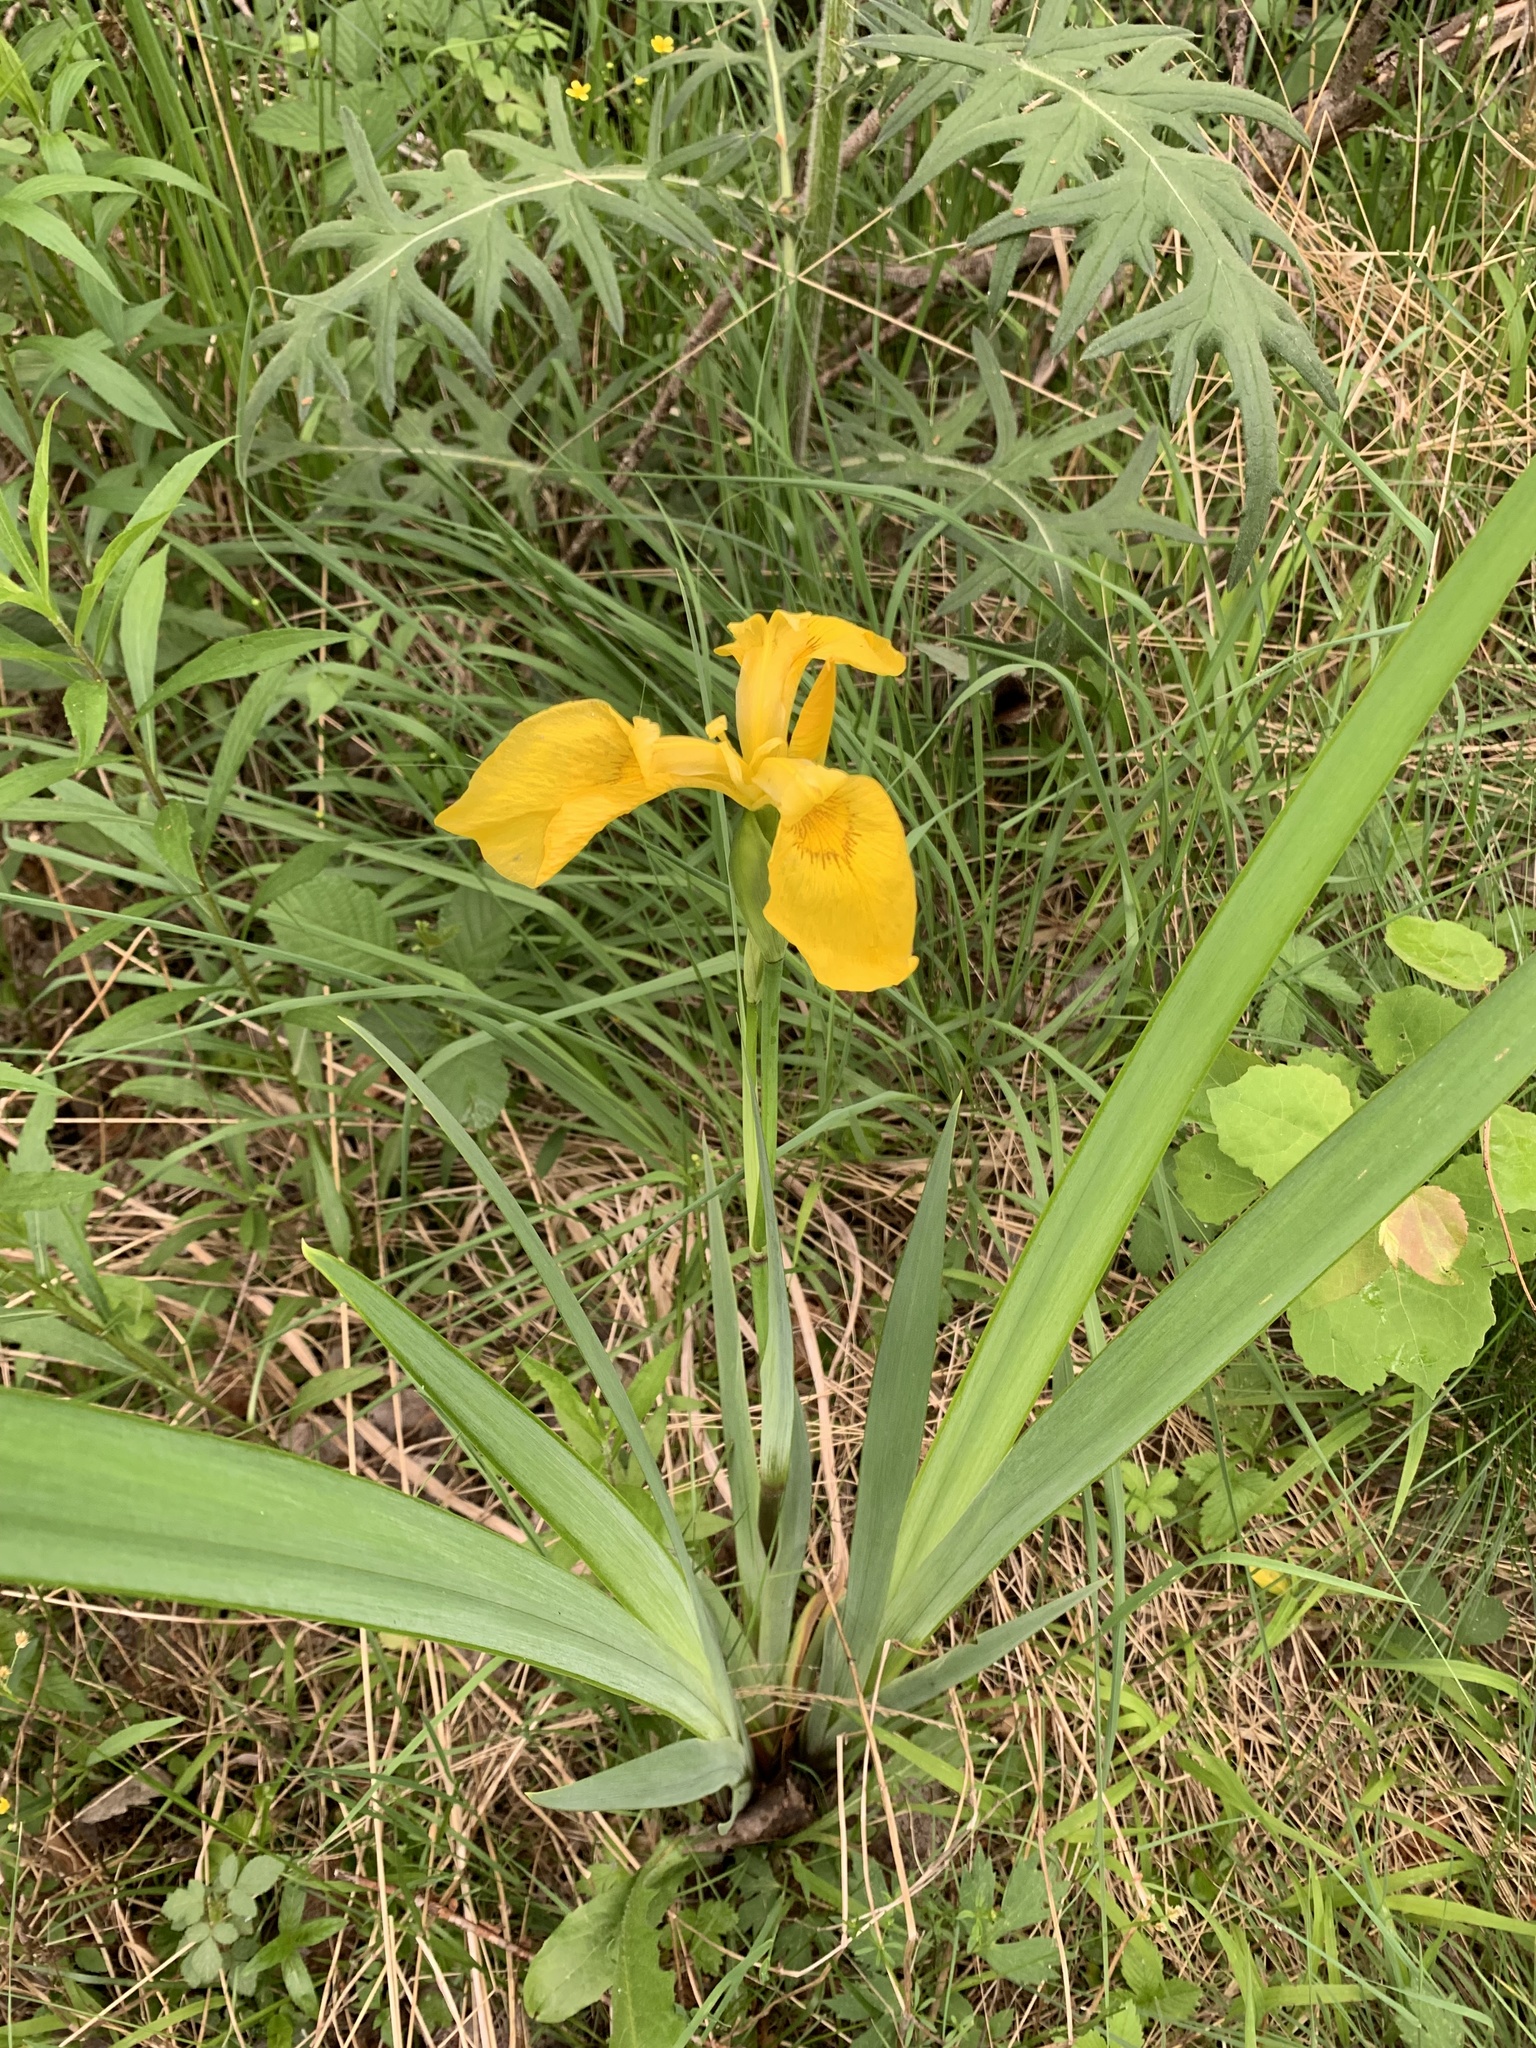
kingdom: Plantae
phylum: Tracheophyta
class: Liliopsida
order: Asparagales
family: Iridaceae
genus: Iris
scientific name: Iris pseudacorus
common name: Yellow flag
